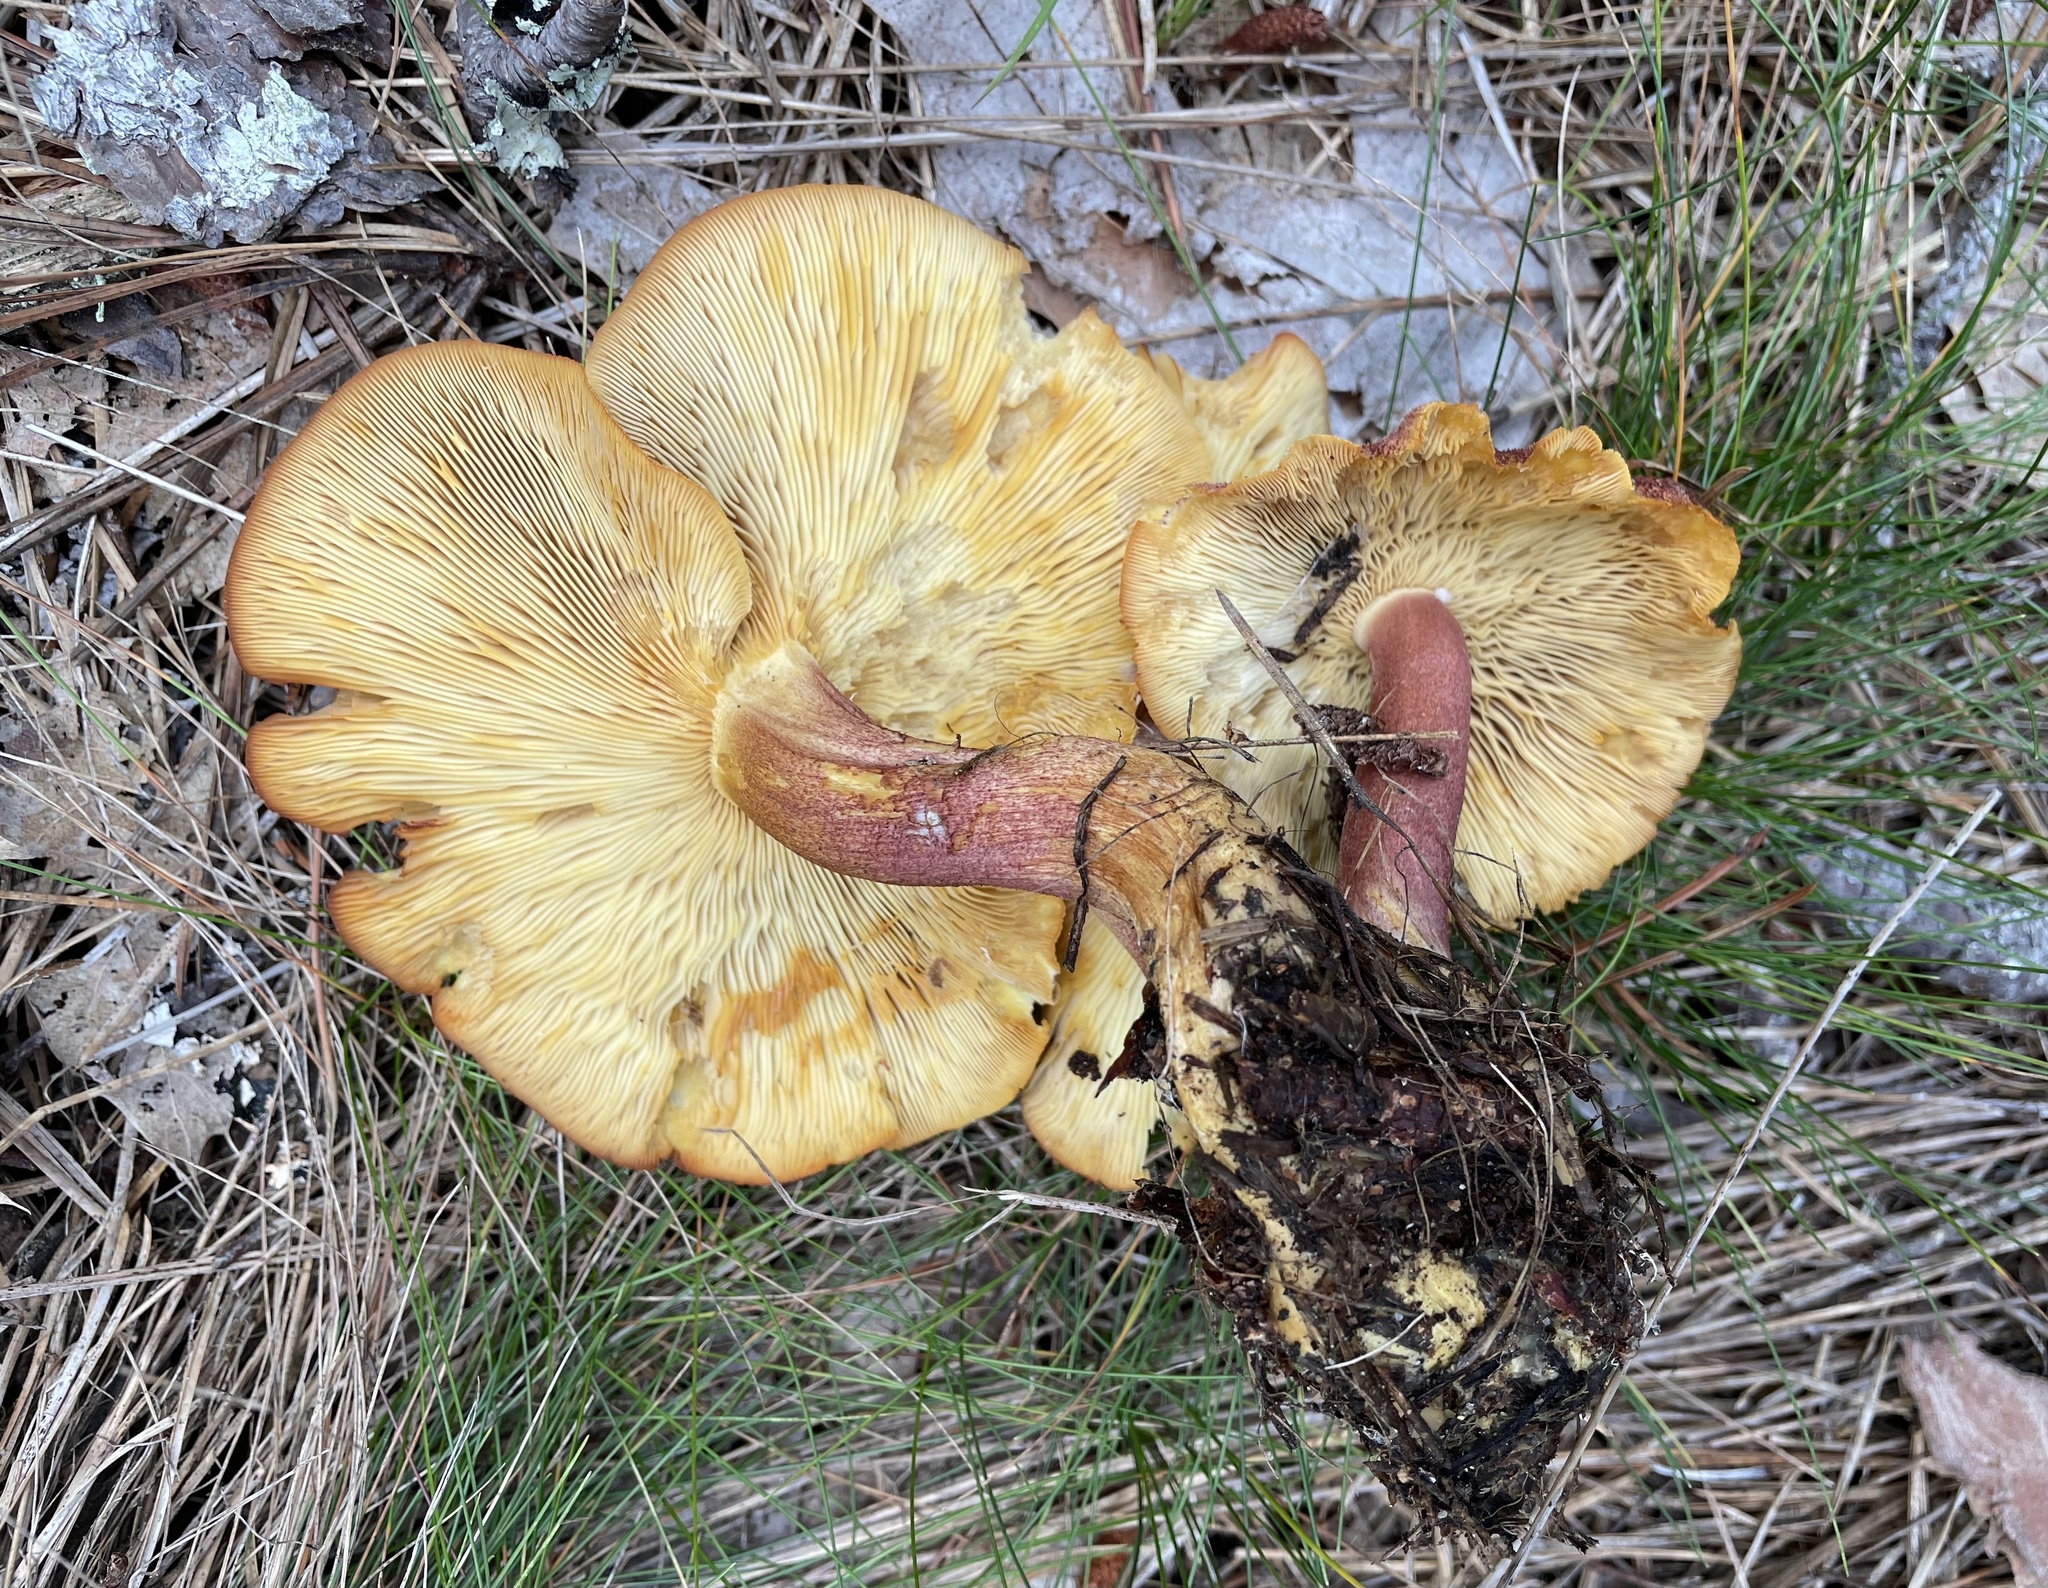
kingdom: Fungi
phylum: Basidiomycota
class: Agaricomycetes
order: Agaricales
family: Tricholomataceae
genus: Tricholomopsis
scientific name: Tricholomopsis rutilans
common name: Plums and custard
